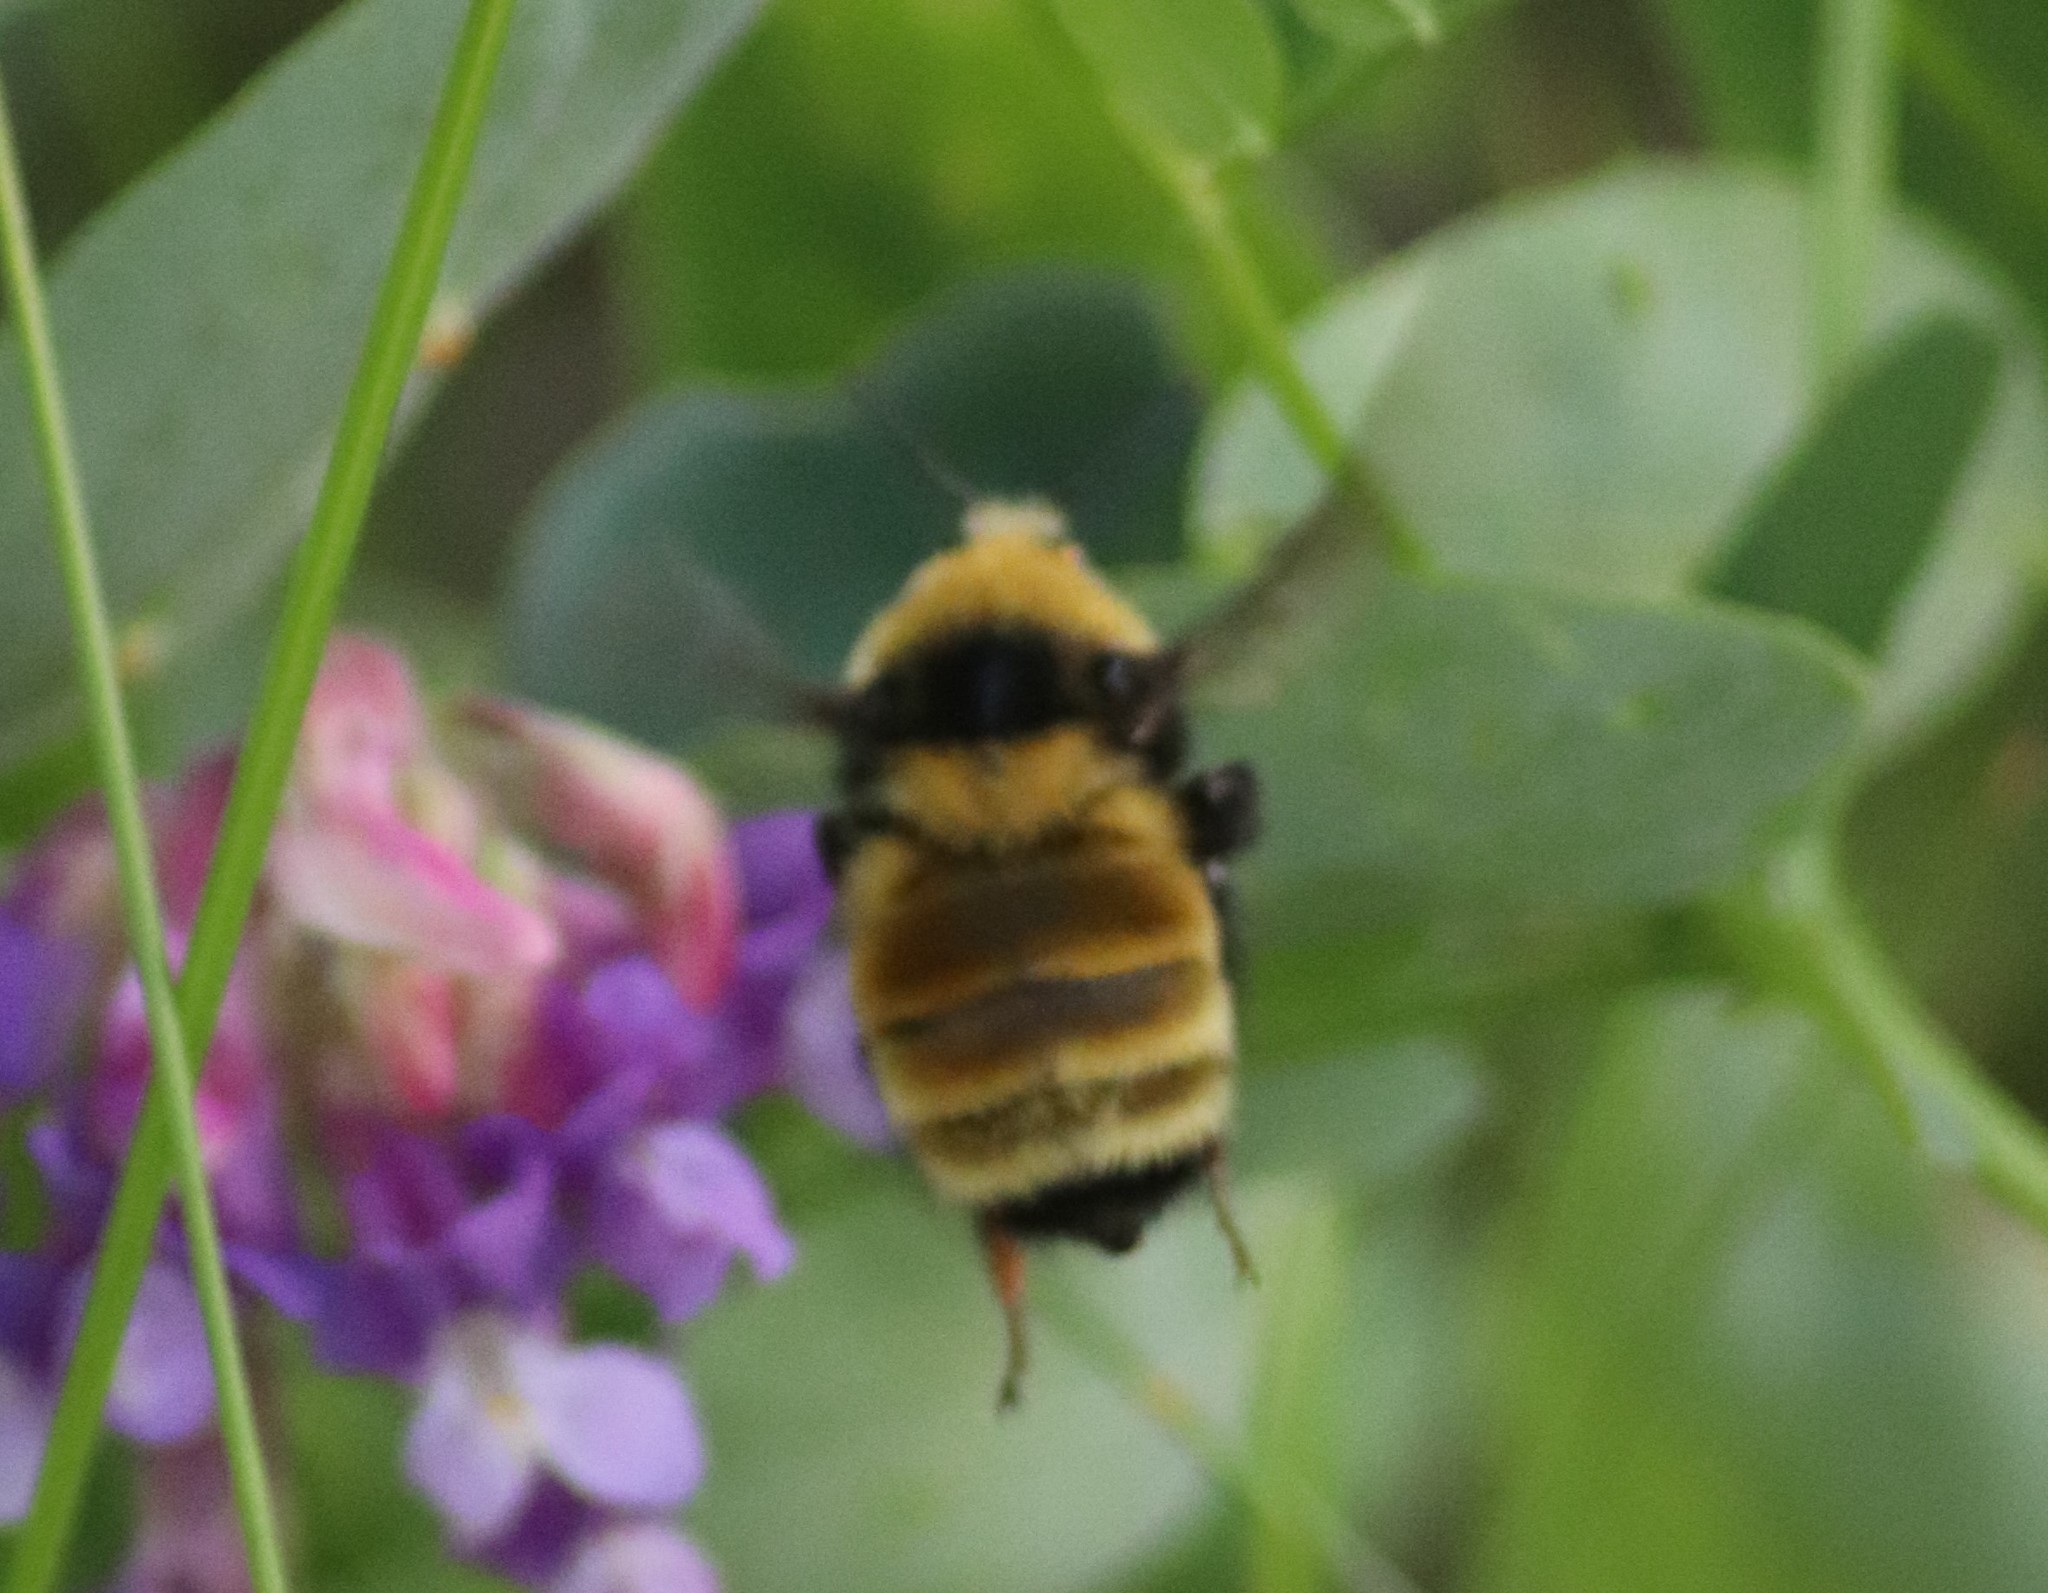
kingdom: Animalia
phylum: Arthropoda
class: Insecta
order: Hymenoptera
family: Apidae
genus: Bombus
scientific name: Bombus borealis
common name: Northern amber bumble bee
